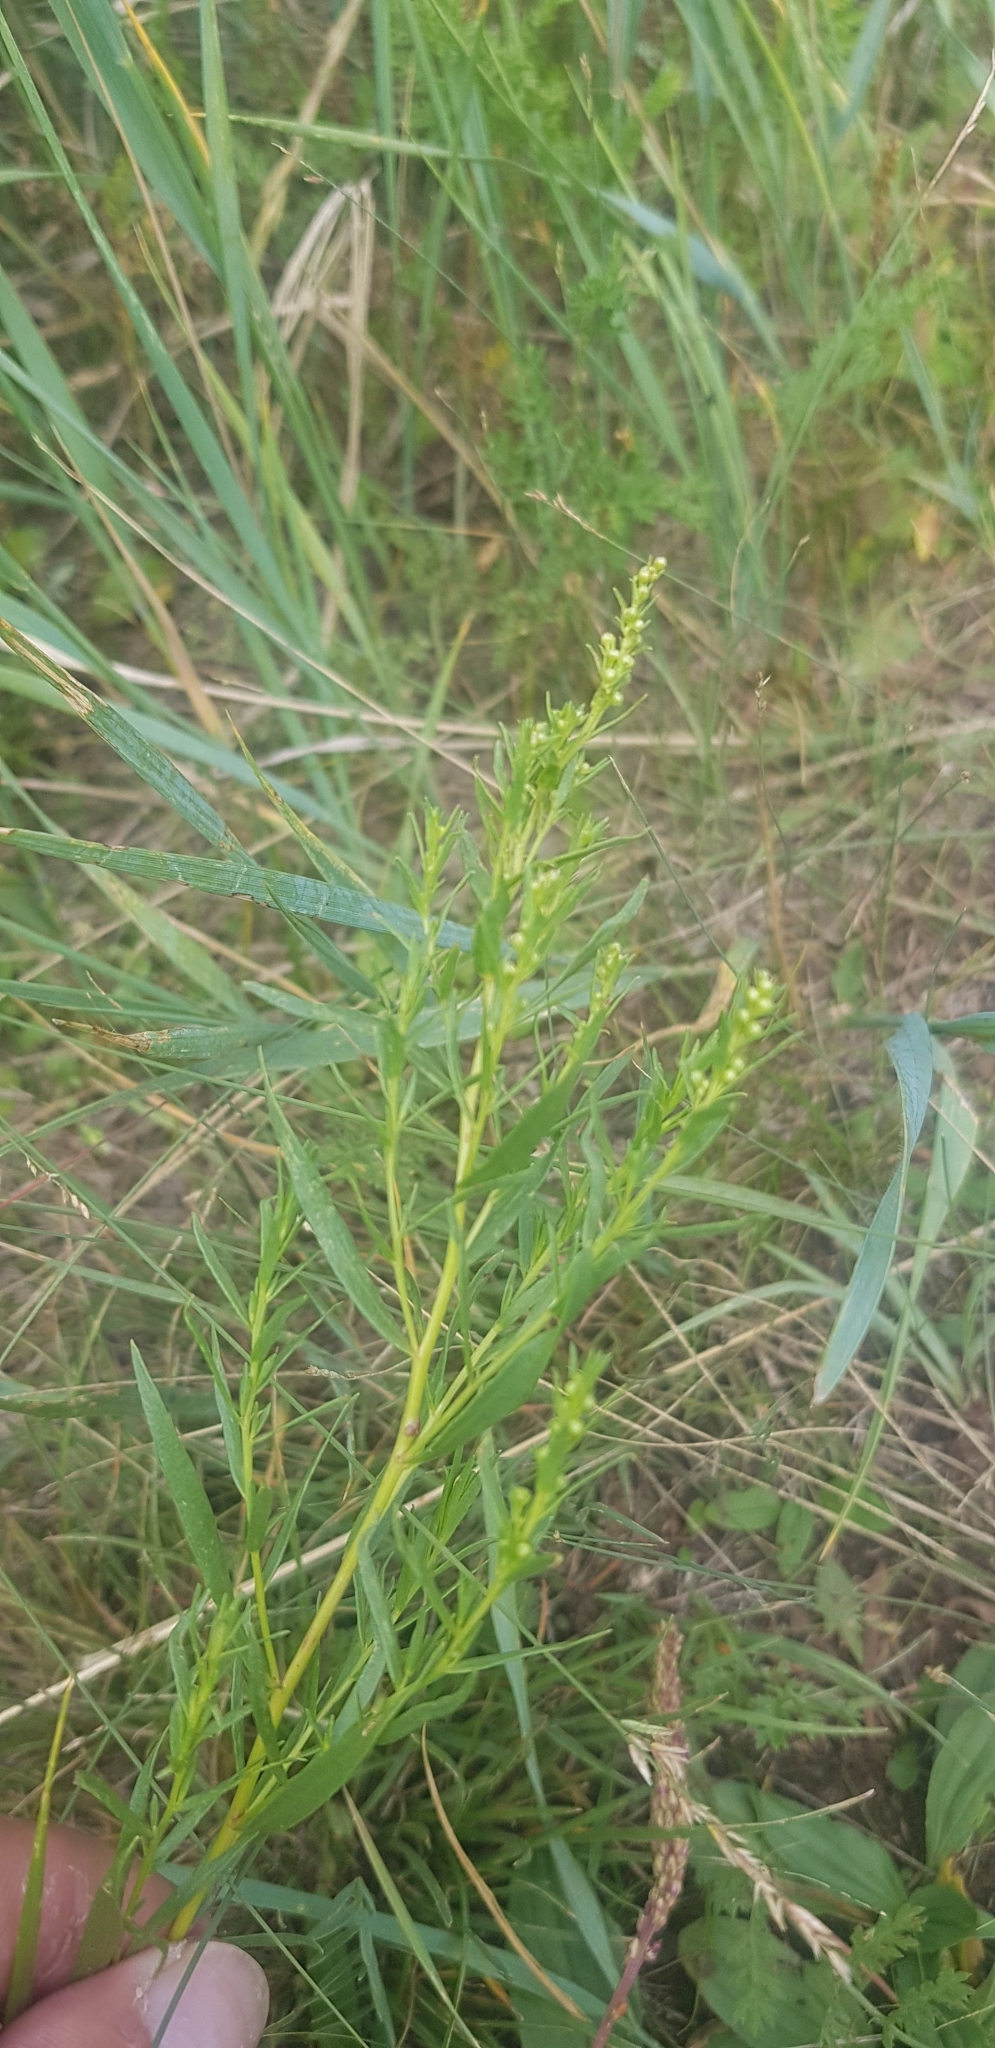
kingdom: Plantae
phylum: Tracheophyta
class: Magnoliopsida
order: Asterales
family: Asteraceae
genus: Artemisia
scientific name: Artemisia dracunculus
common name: Tarragon
